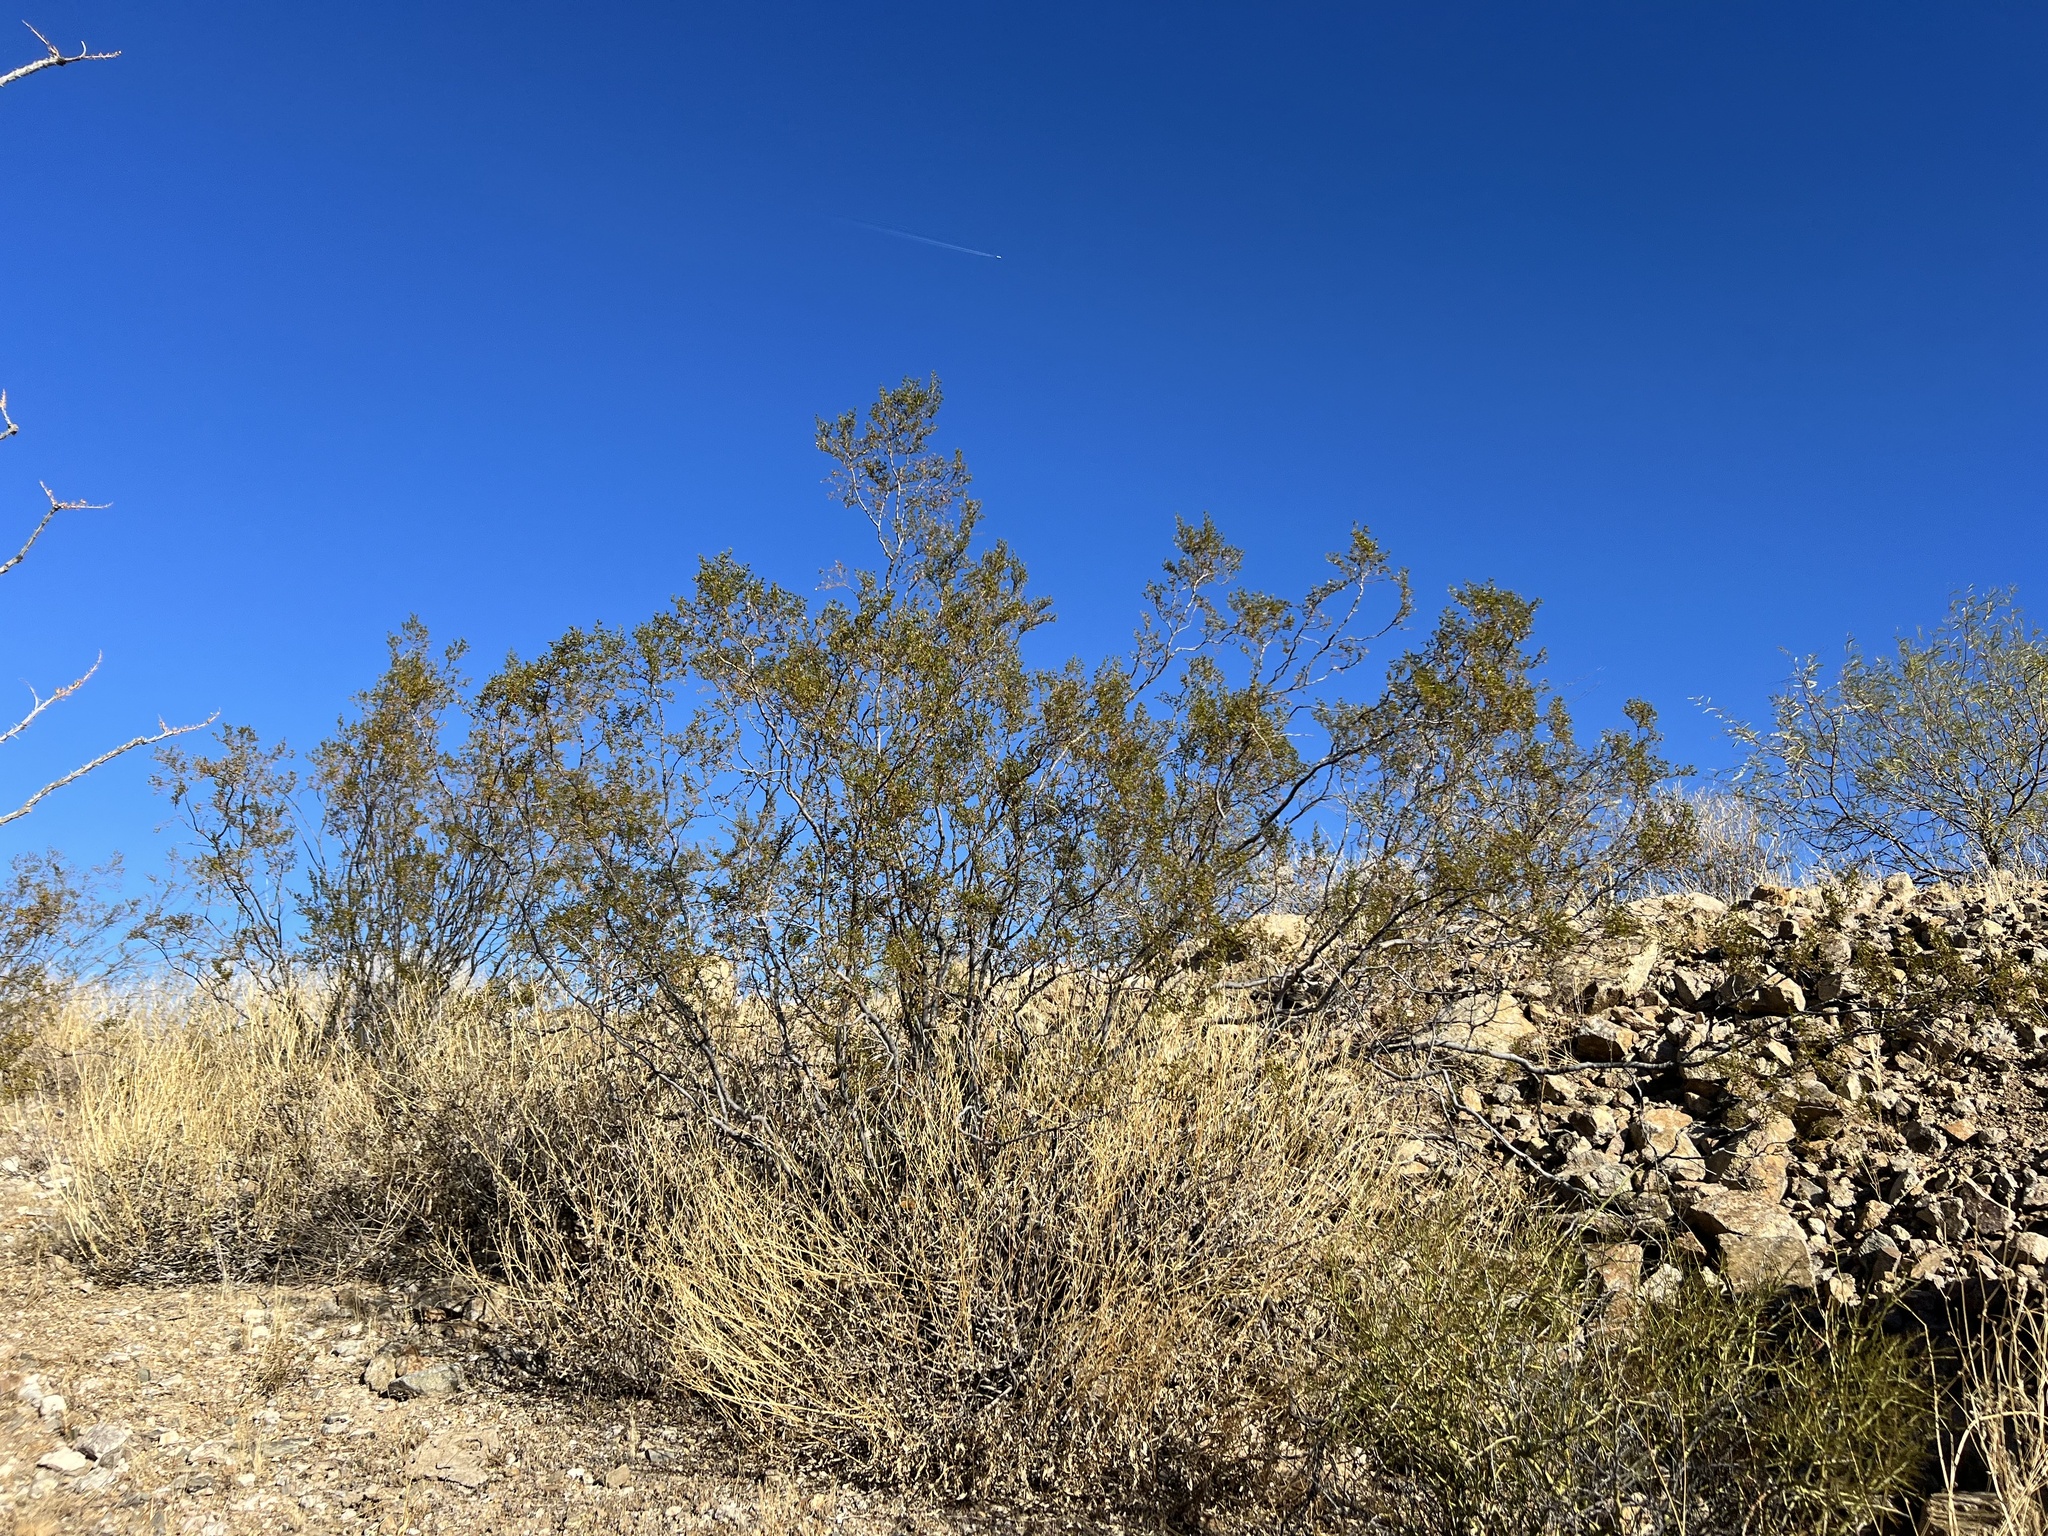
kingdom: Plantae
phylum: Tracheophyta
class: Magnoliopsida
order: Zygophyllales
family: Zygophyllaceae
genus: Larrea
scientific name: Larrea tridentata
